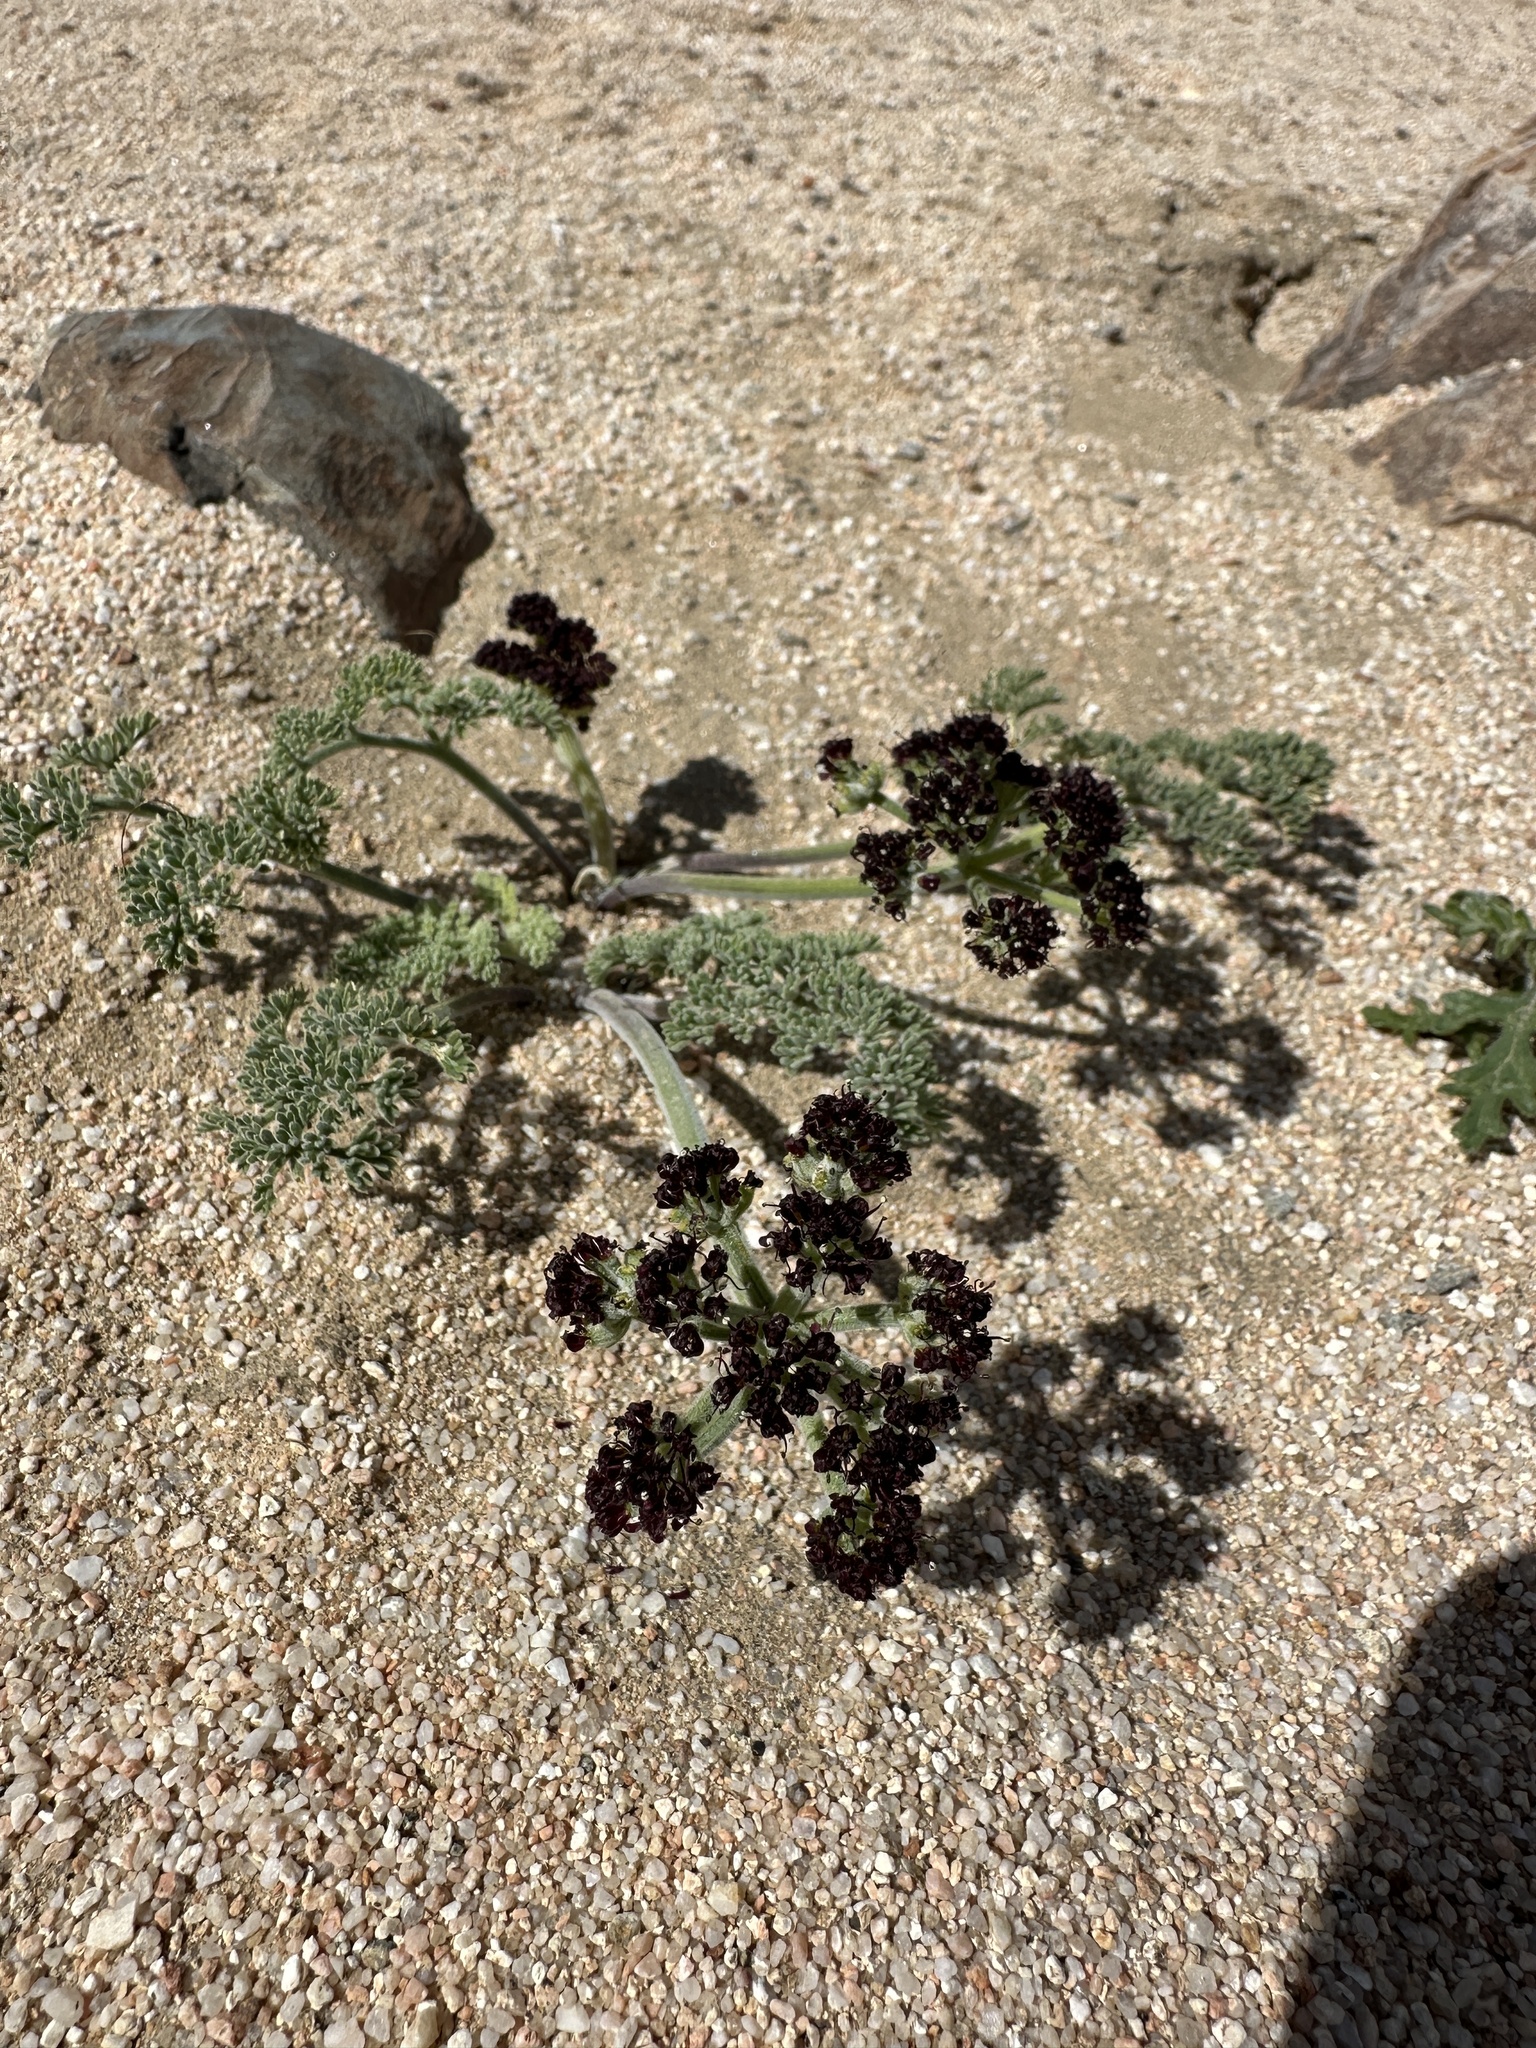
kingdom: Plantae
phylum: Tracheophyta
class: Magnoliopsida
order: Apiales
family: Apiaceae
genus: Lomatium
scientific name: Lomatium mohavense
